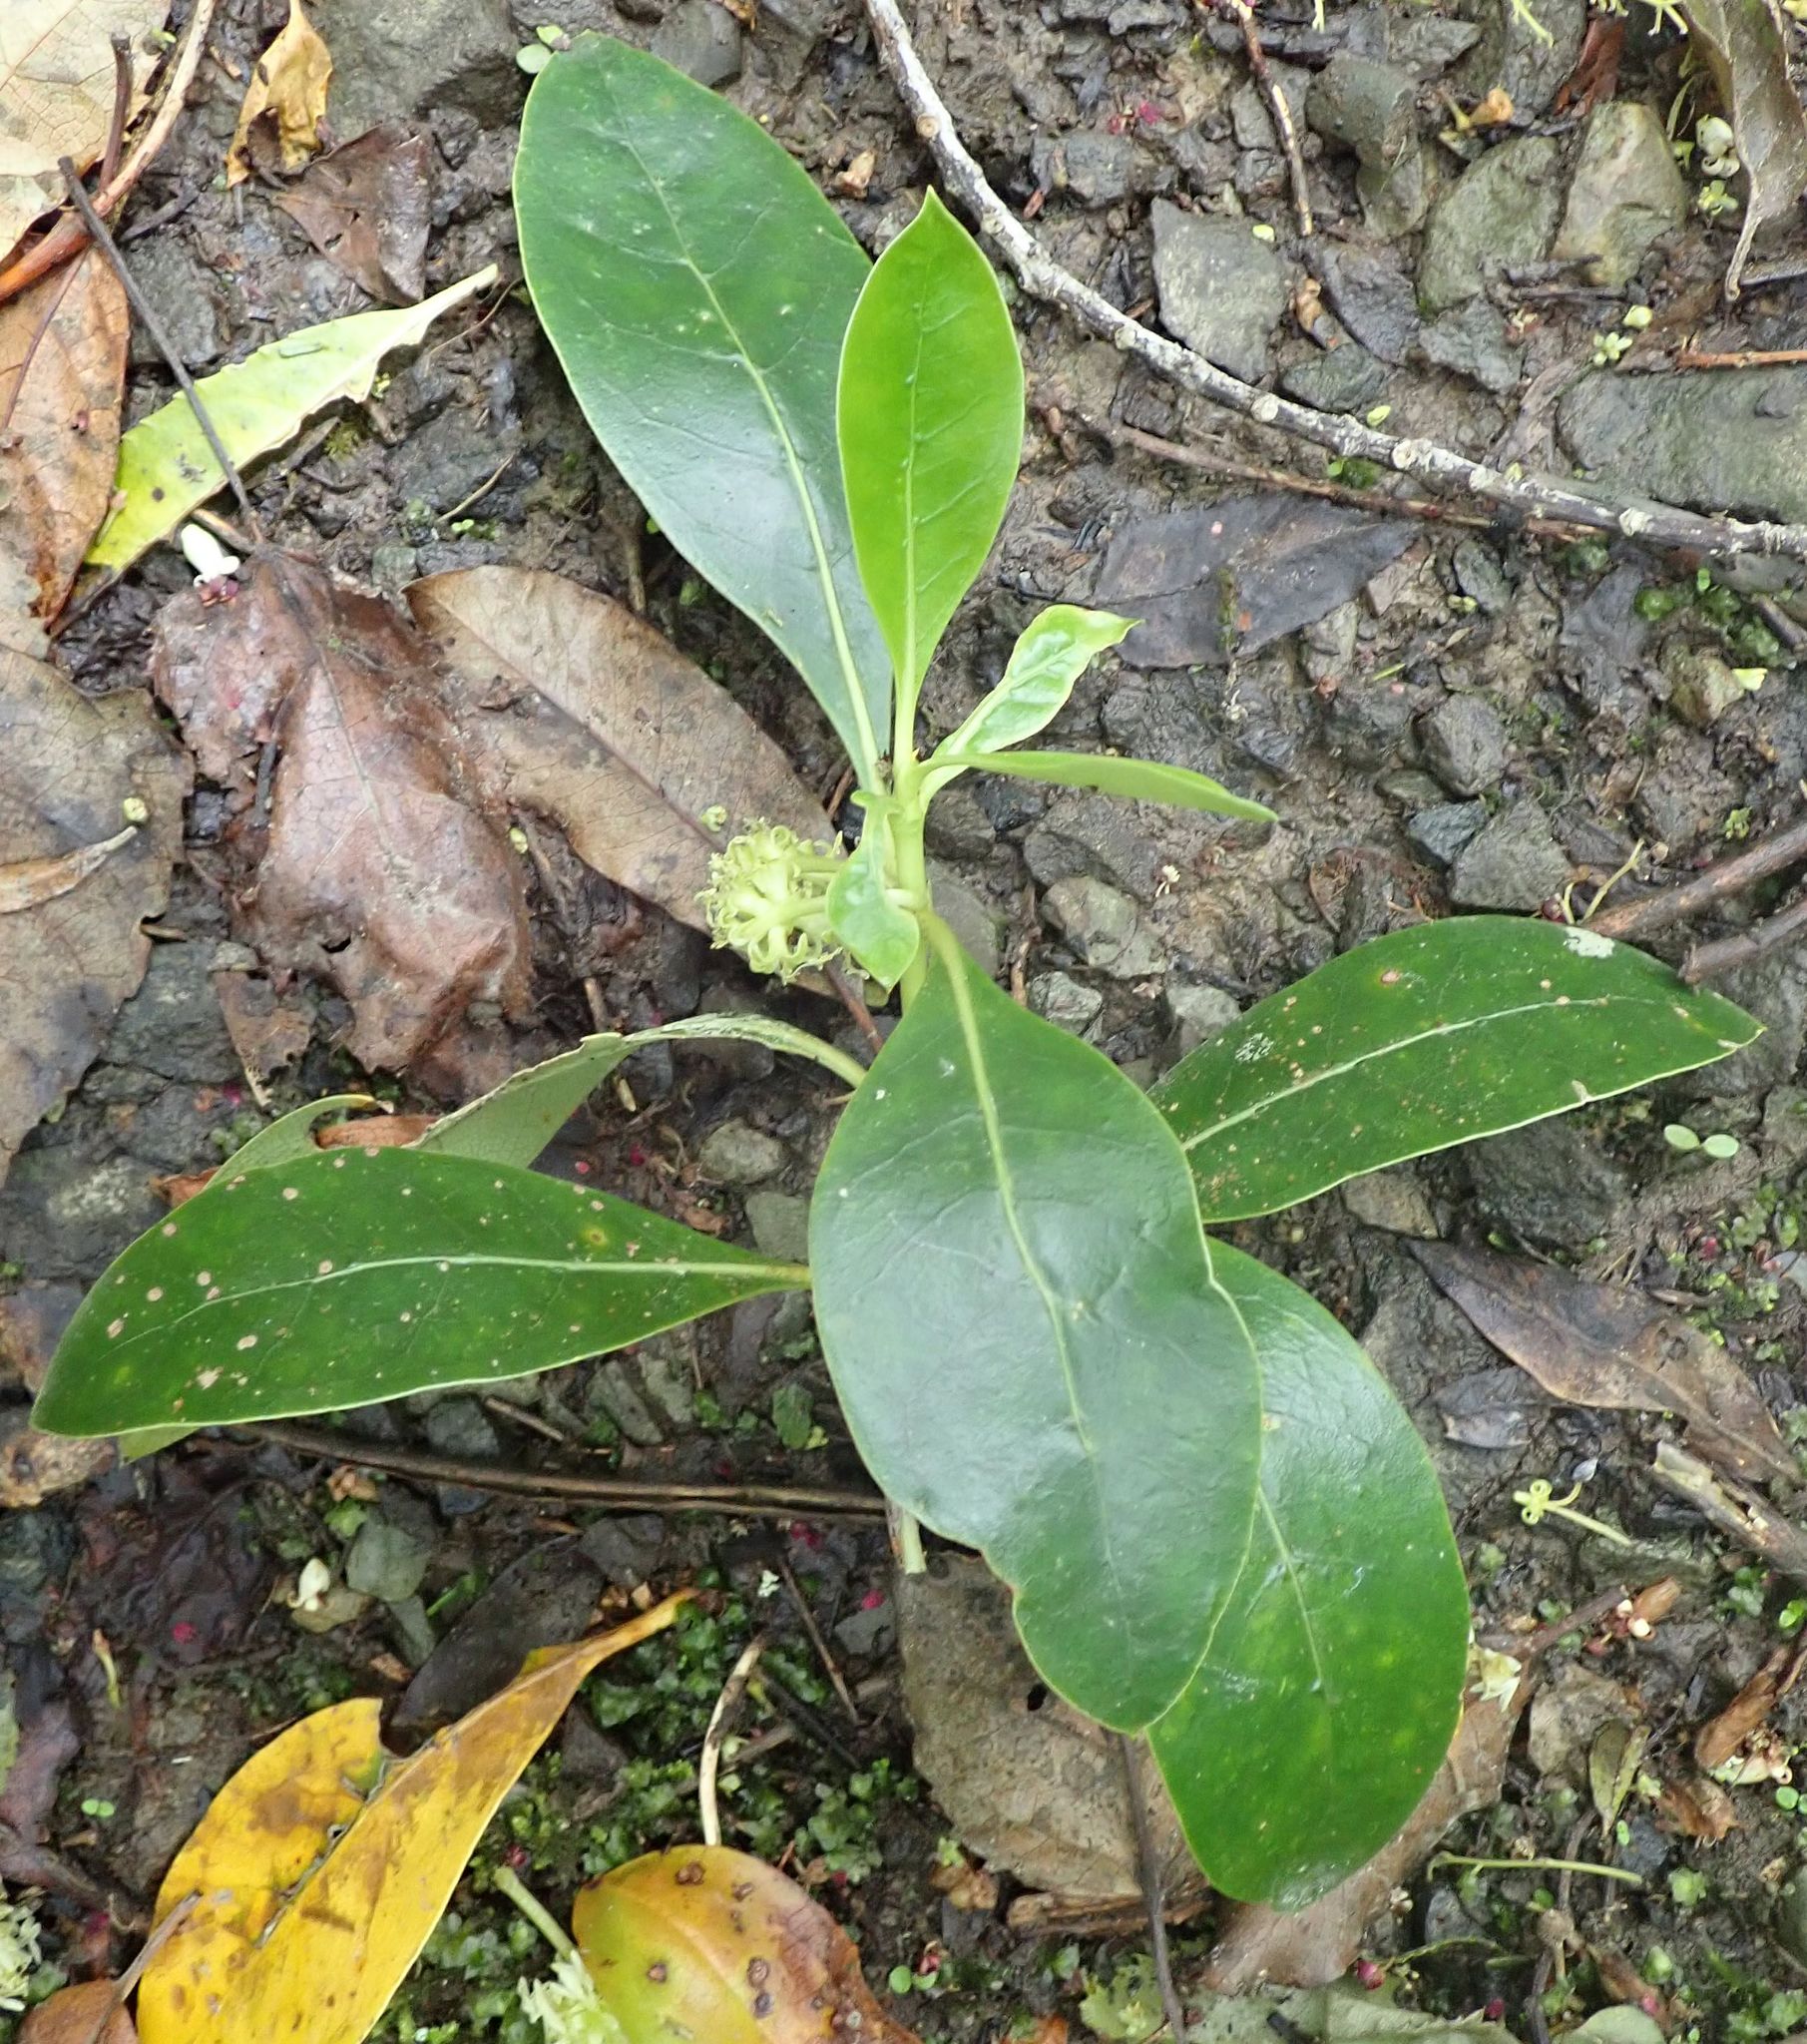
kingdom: Plantae
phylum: Tracheophyta
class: Magnoliopsida
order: Gentianales
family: Rubiaceae
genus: Coprosma
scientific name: Coprosma robusta
